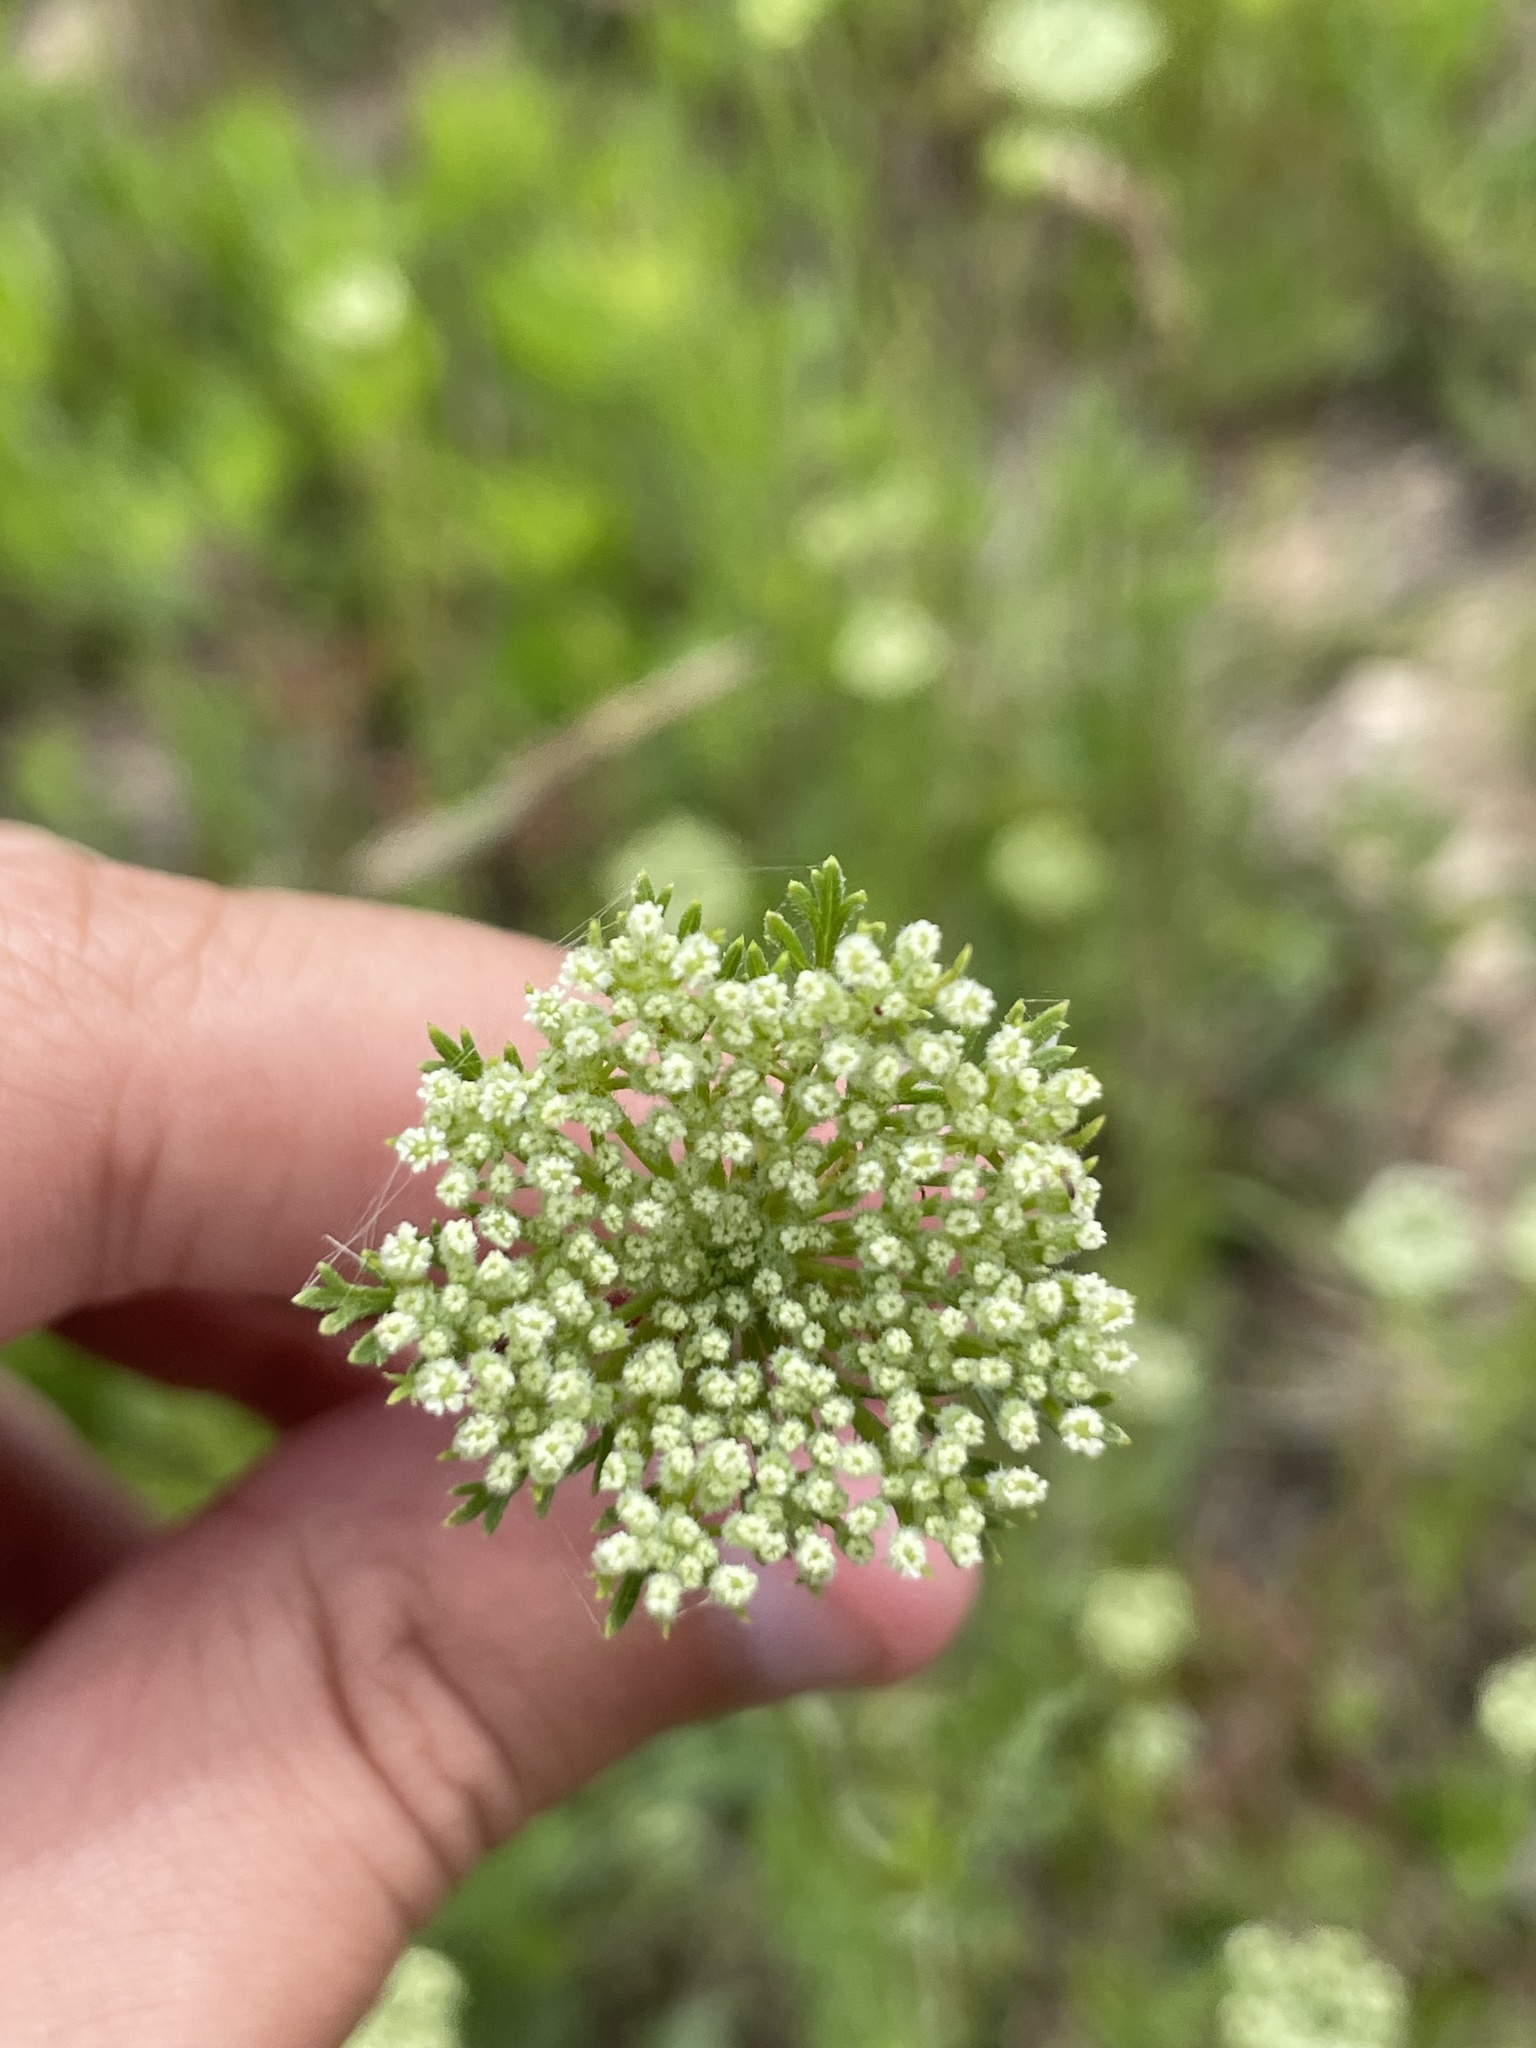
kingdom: Plantae
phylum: Tracheophyta
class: Magnoliopsida
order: Apiales
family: Apiaceae
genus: Daucus
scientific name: Daucus pusillus
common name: Southwest wild carrot
